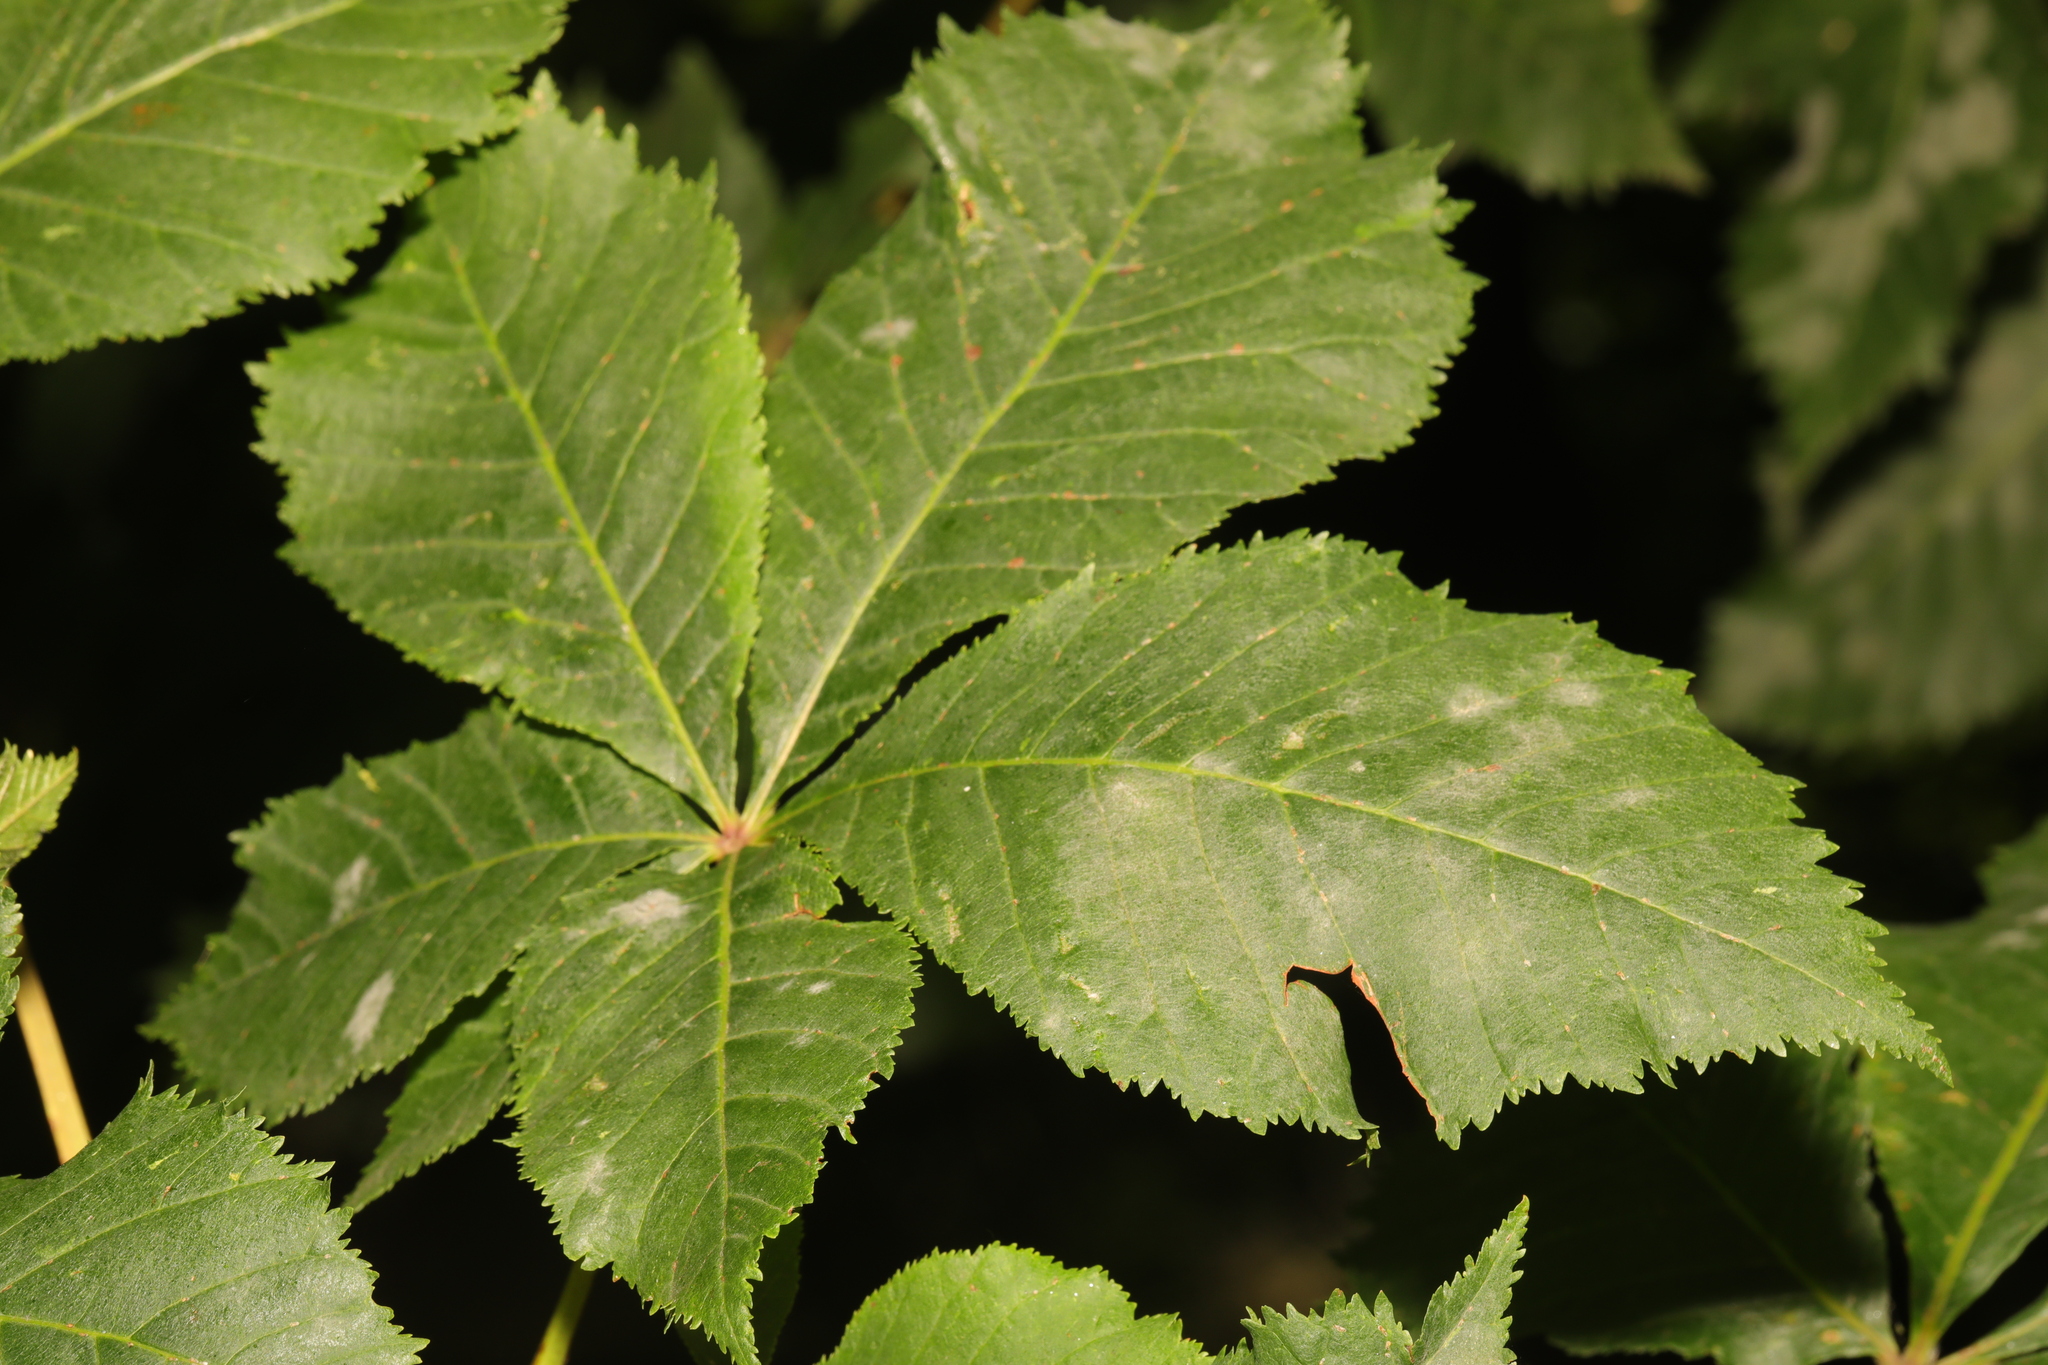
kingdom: Plantae
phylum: Tracheophyta
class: Magnoliopsida
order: Sapindales
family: Sapindaceae
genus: Aesculus
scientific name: Aesculus hippocastanum
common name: Horse-chestnut
